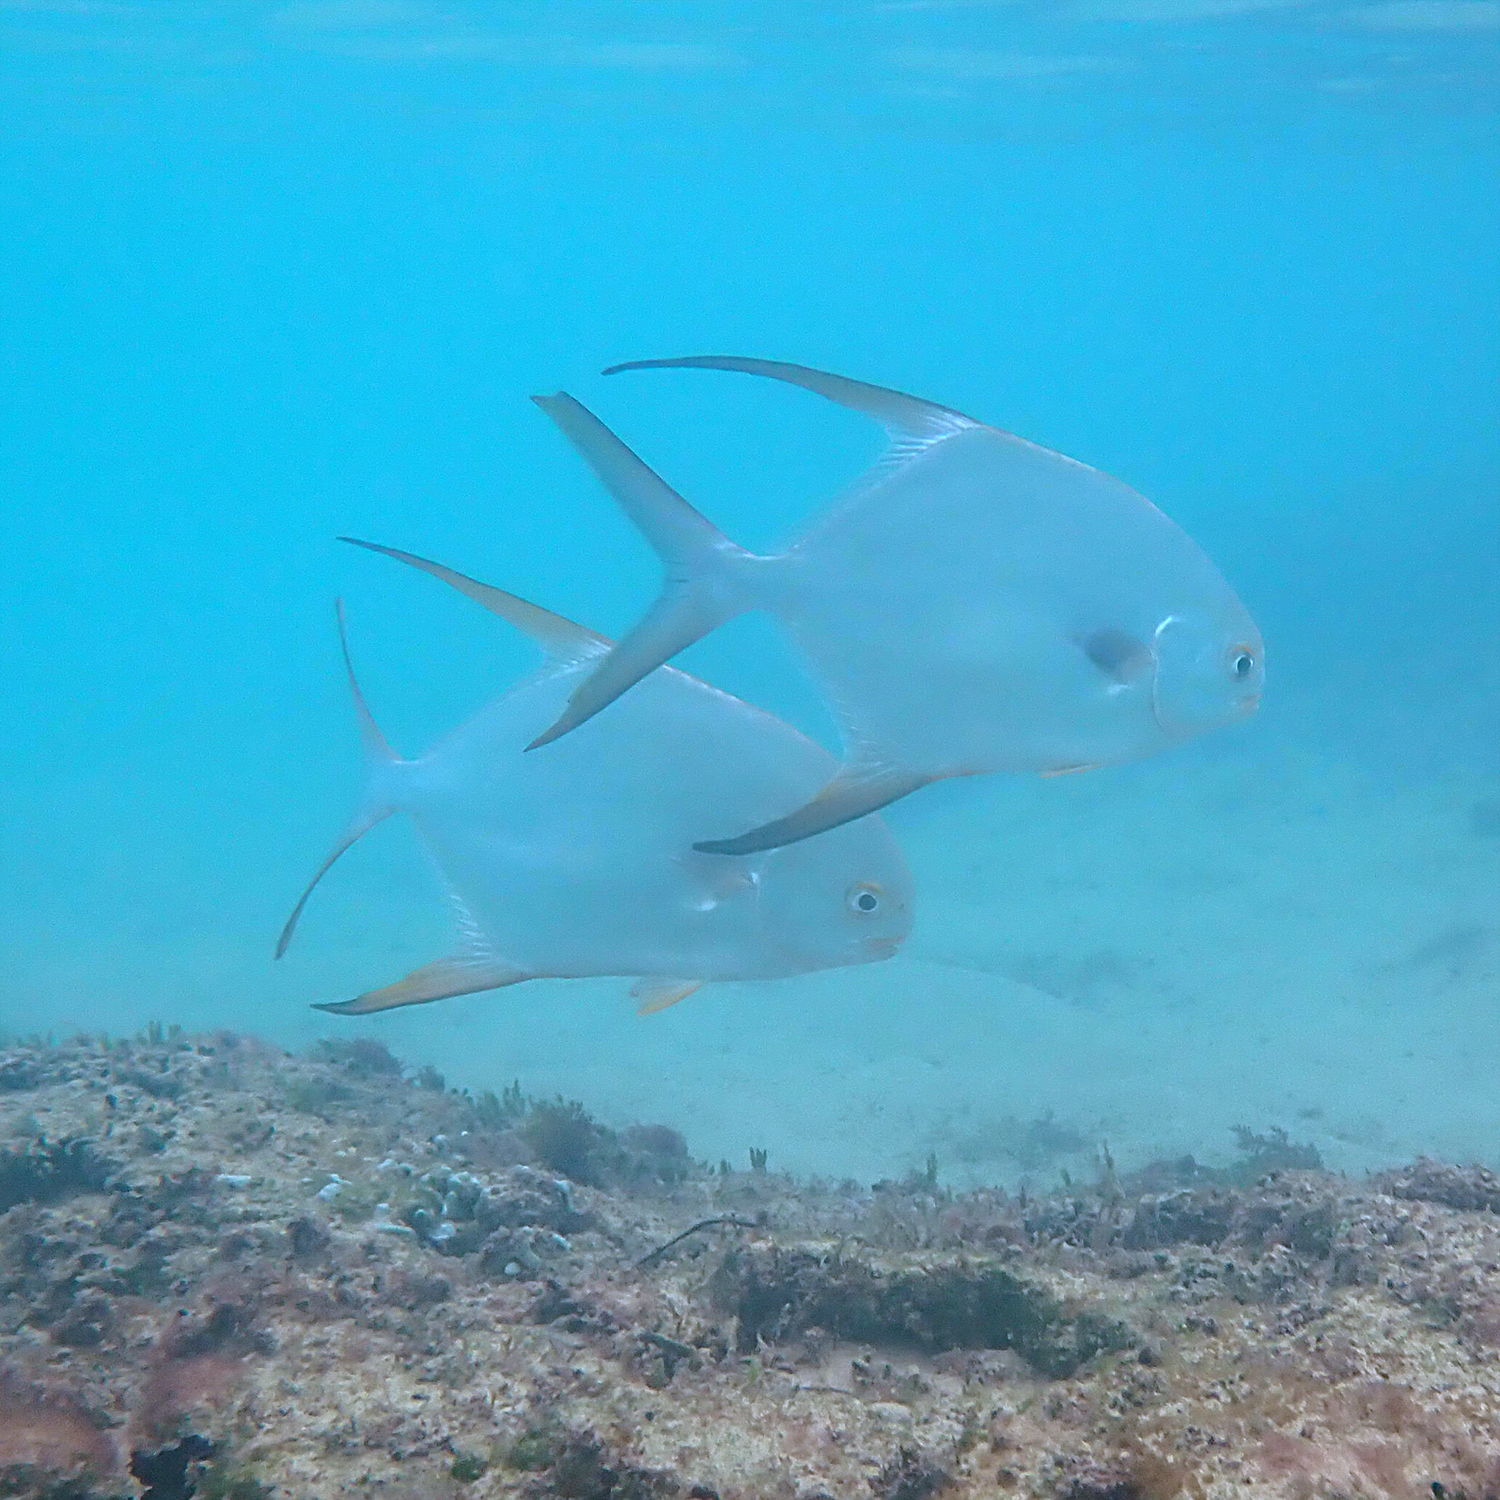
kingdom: Animalia
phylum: Chordata
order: Perciformes
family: Carangidae
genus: Trachinotus
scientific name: Trachinotus blochii
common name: Snubnose pompano
